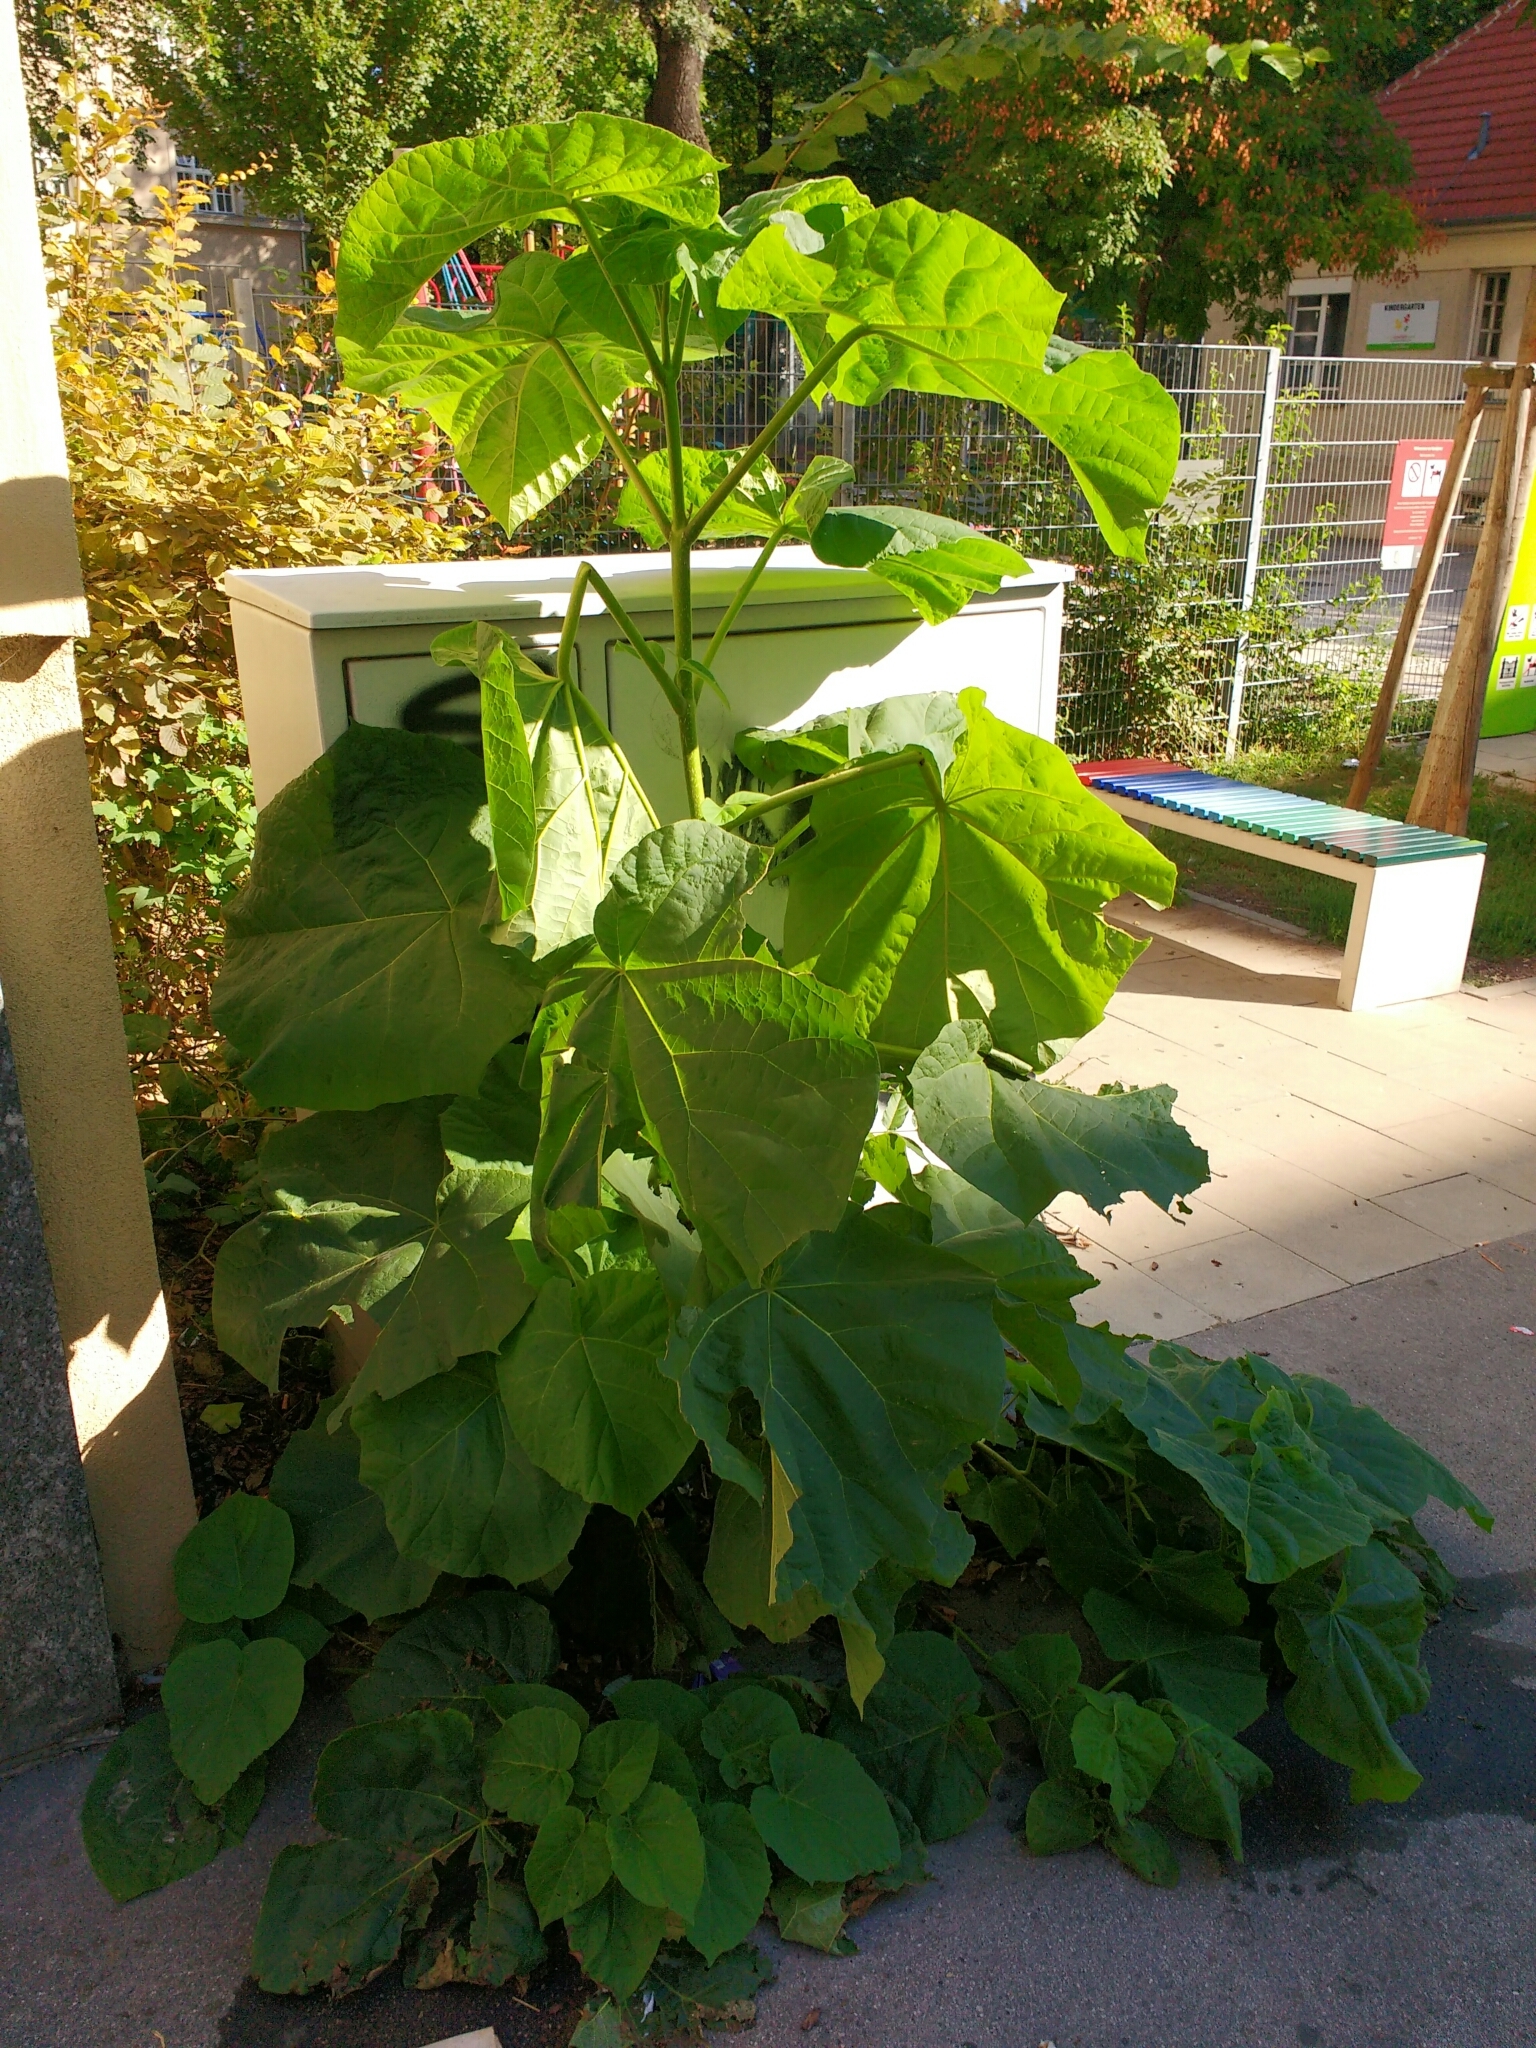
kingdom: Plantae
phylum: Tracheophyta
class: Magnoliopsida
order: Lamiales
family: Paulowniaceae
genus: Paulownia
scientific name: Paulownia tomentosa
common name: Foxglove-tree
